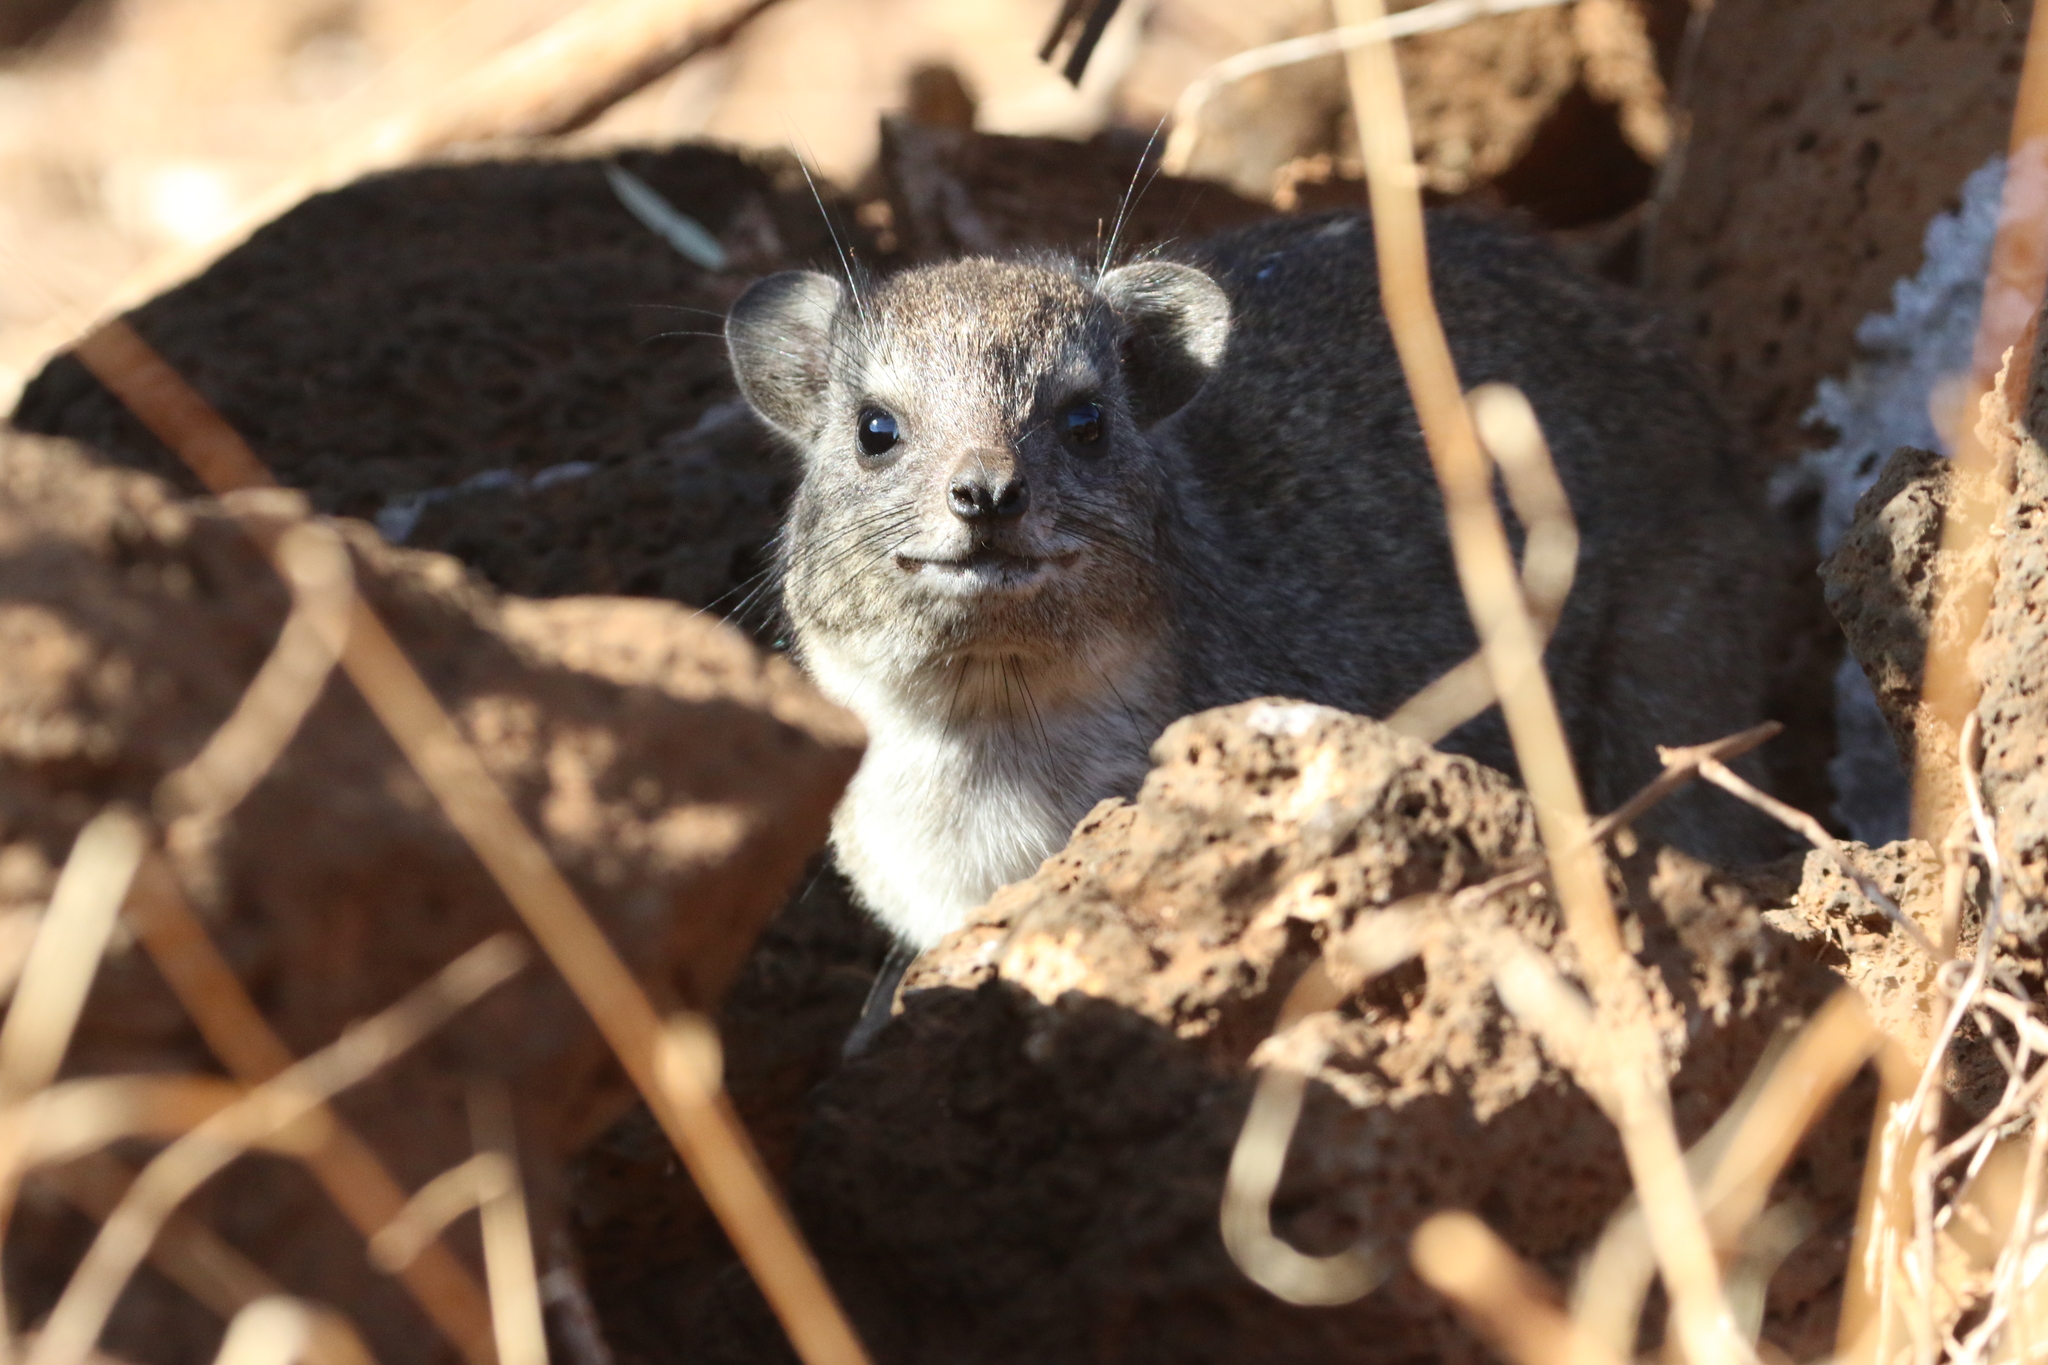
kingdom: Animalia
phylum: Chordata
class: Mammalia
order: Hyracoidea
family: Procaviidae
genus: Heterohyrax
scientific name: Heterohyrax brucei
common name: Bush hyrax
